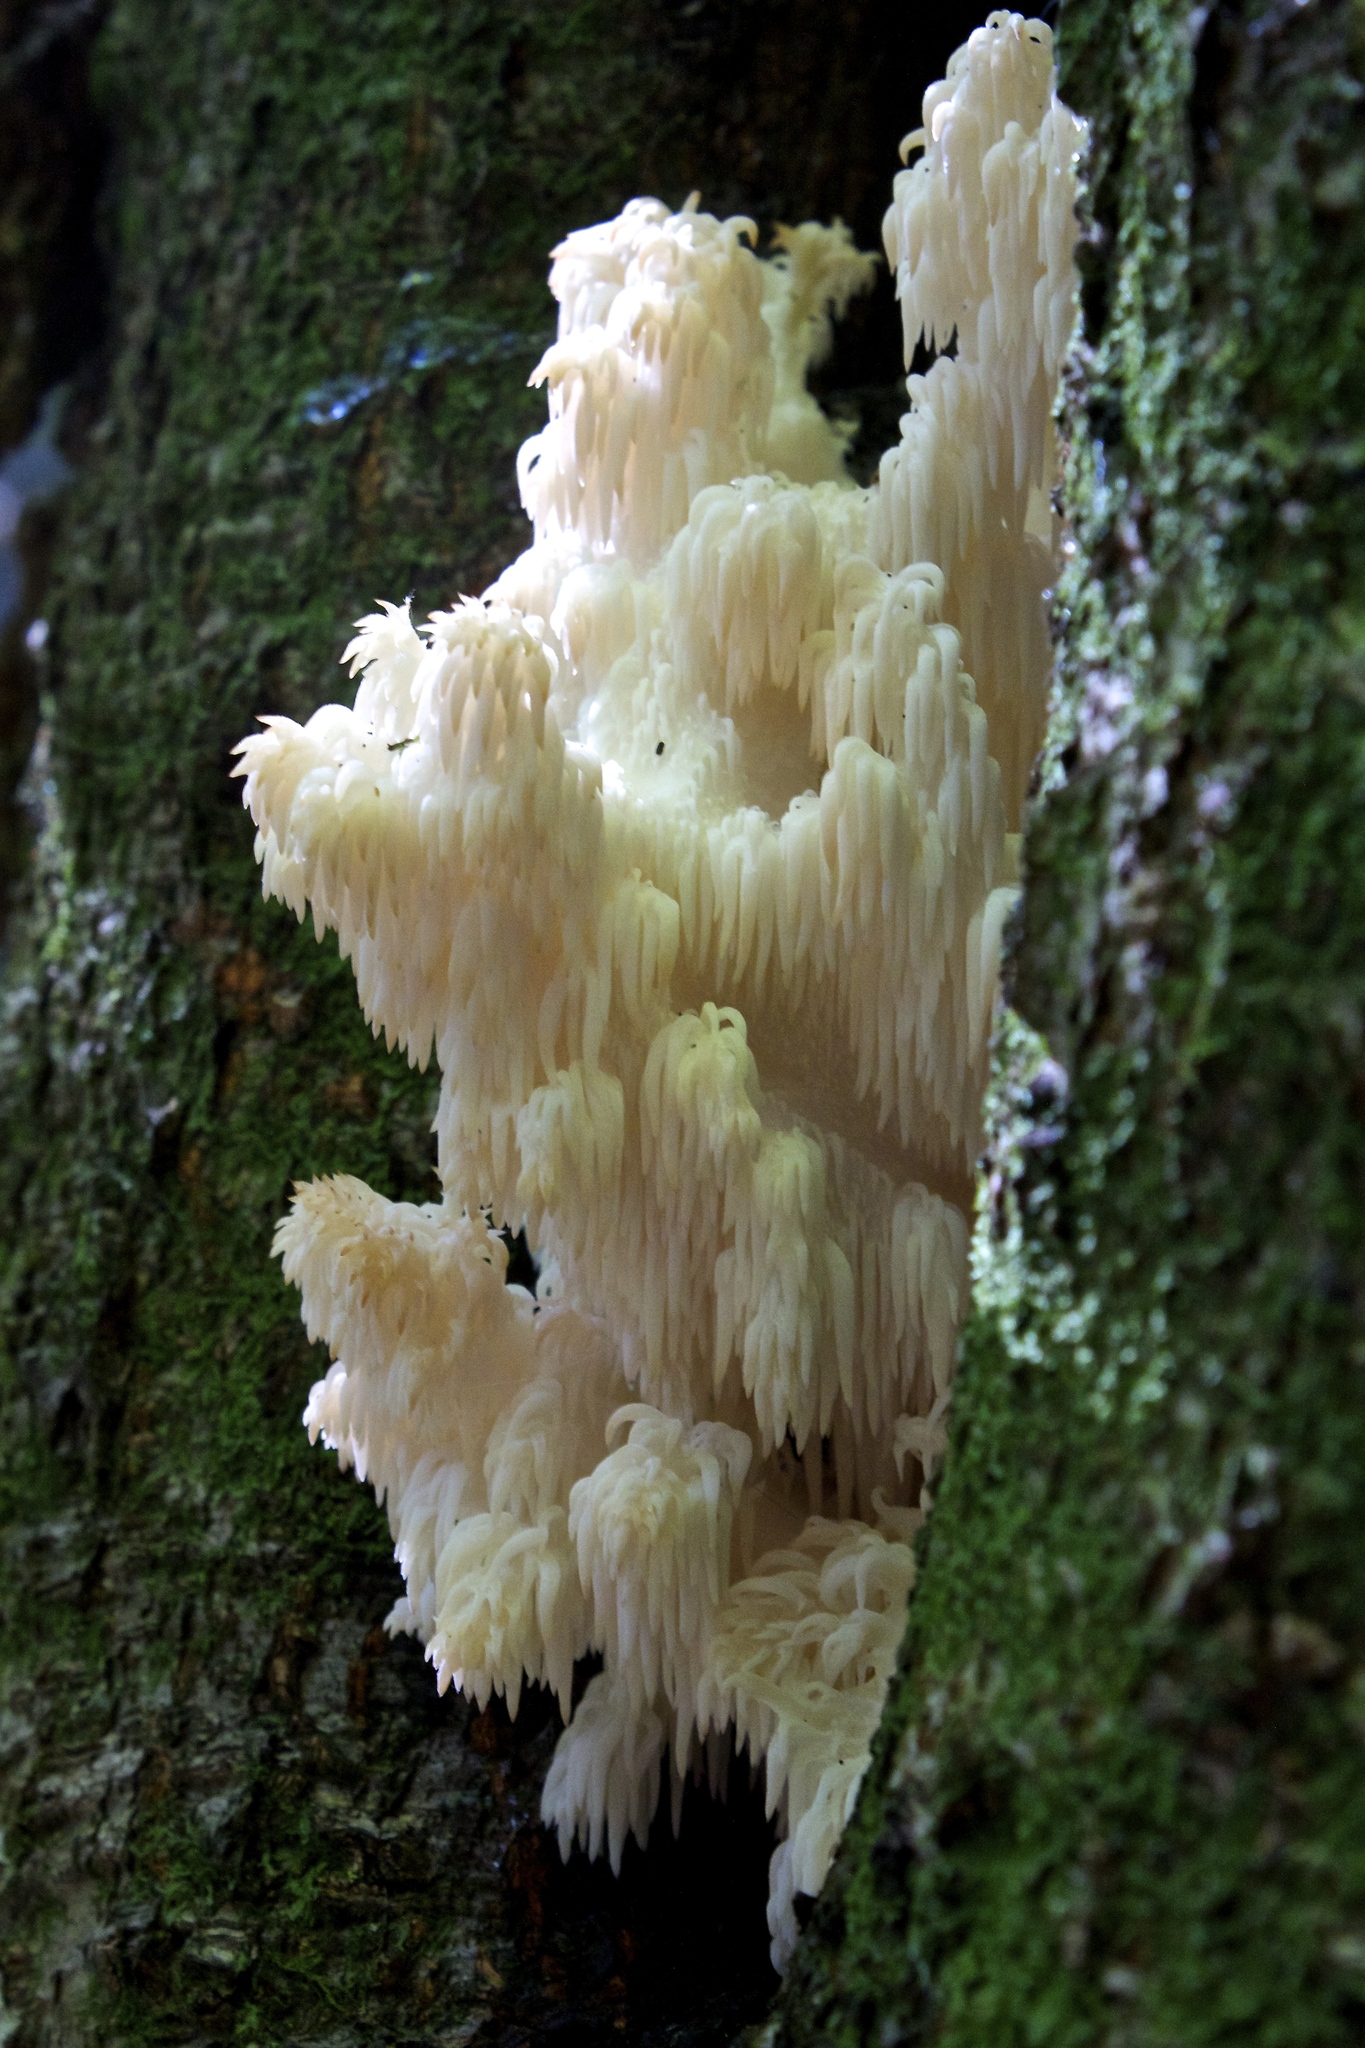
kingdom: Fungi
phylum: Basidiomycota
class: Agaricomycetes
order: Russulales
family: Hericiaceae
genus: Hericium
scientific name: Hericium americanum
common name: Bear's head tooth
